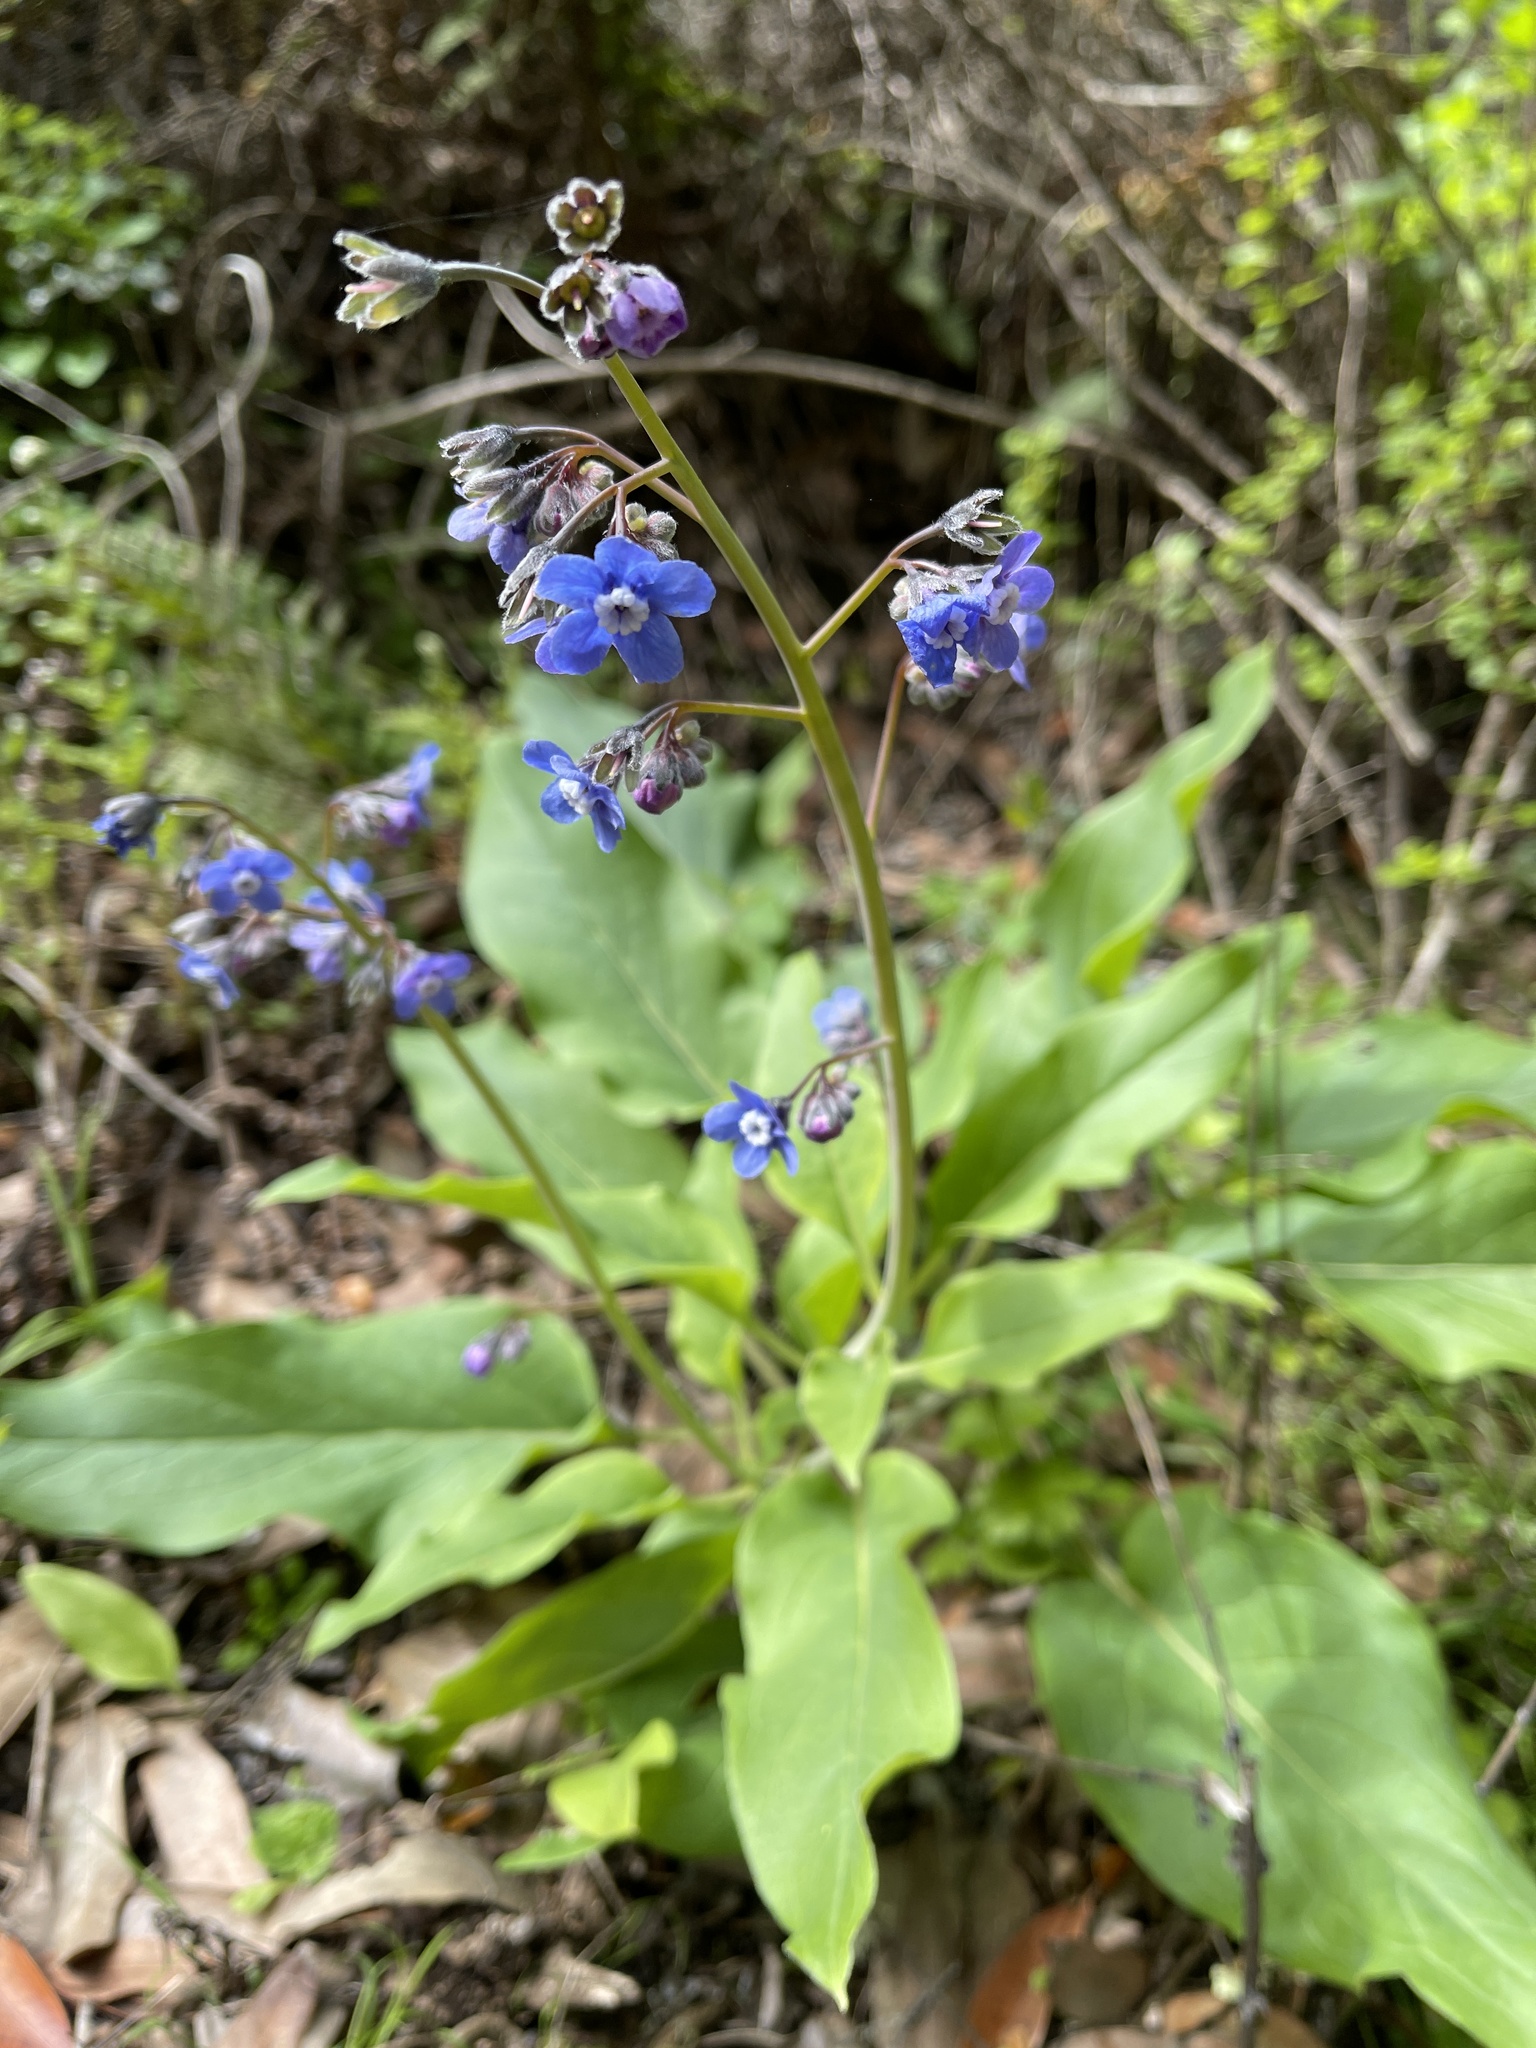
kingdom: Plantae
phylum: Tracheophyta
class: Magnoliopsida
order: Boraginales
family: Boraginaceae
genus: Adelinia
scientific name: Adelinia grande
